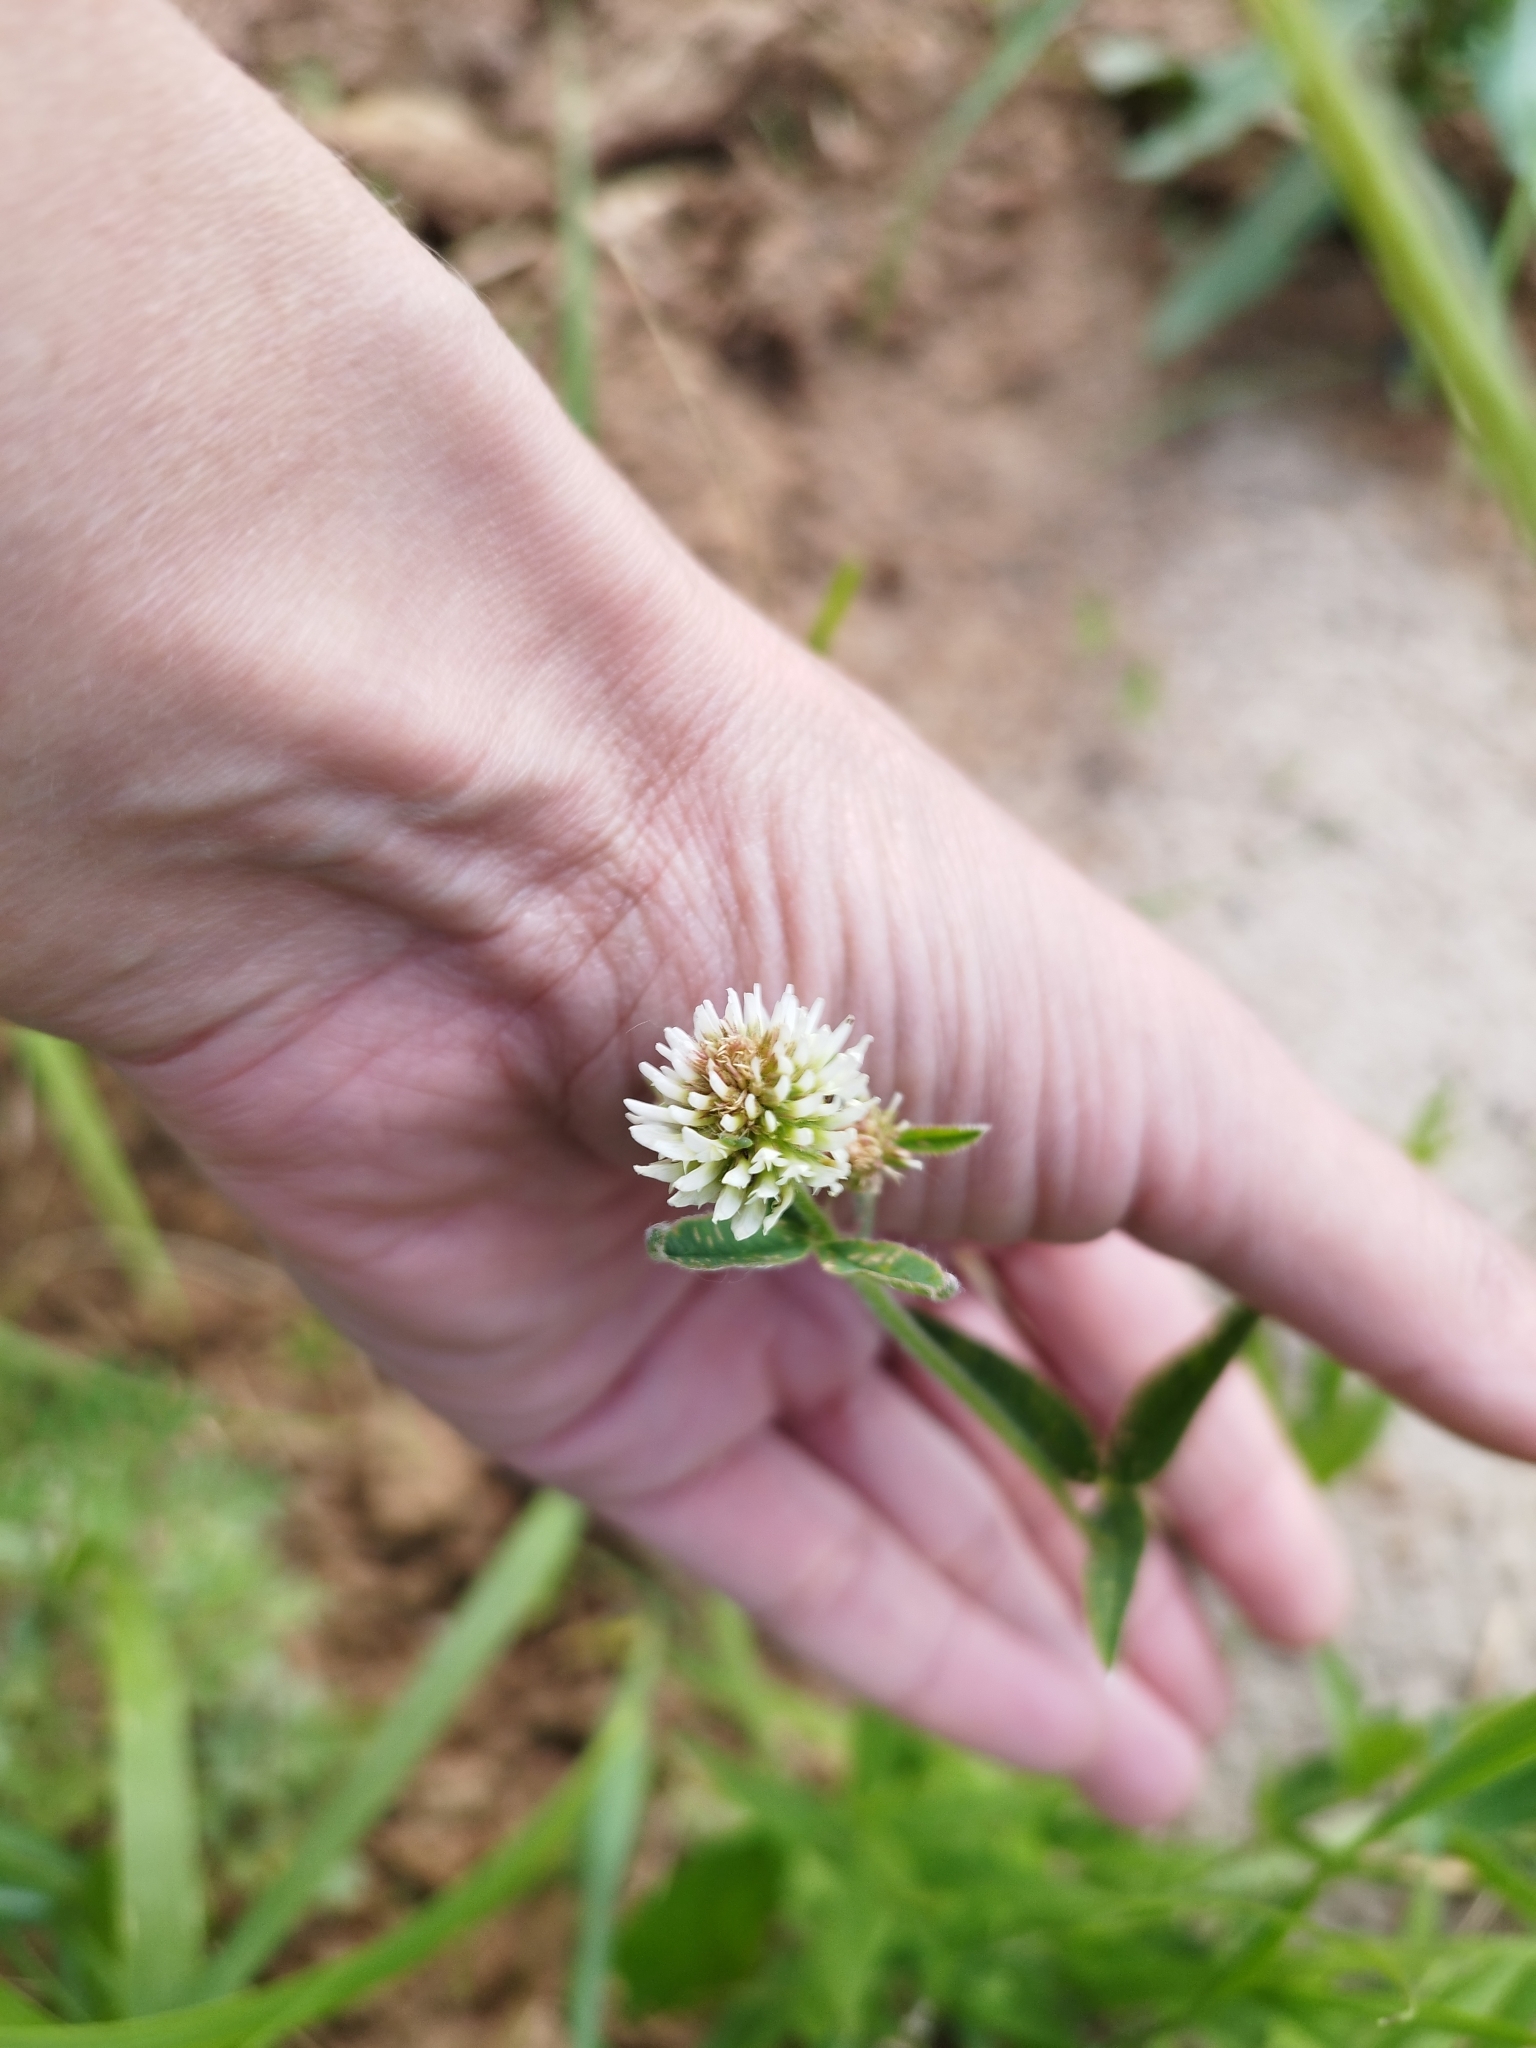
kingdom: Plantae
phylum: Tracheophyta
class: Magnoliopsida
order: Fabales
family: Fabaceae
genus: Trifolium
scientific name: Trifolium montanum
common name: Mountain clover
